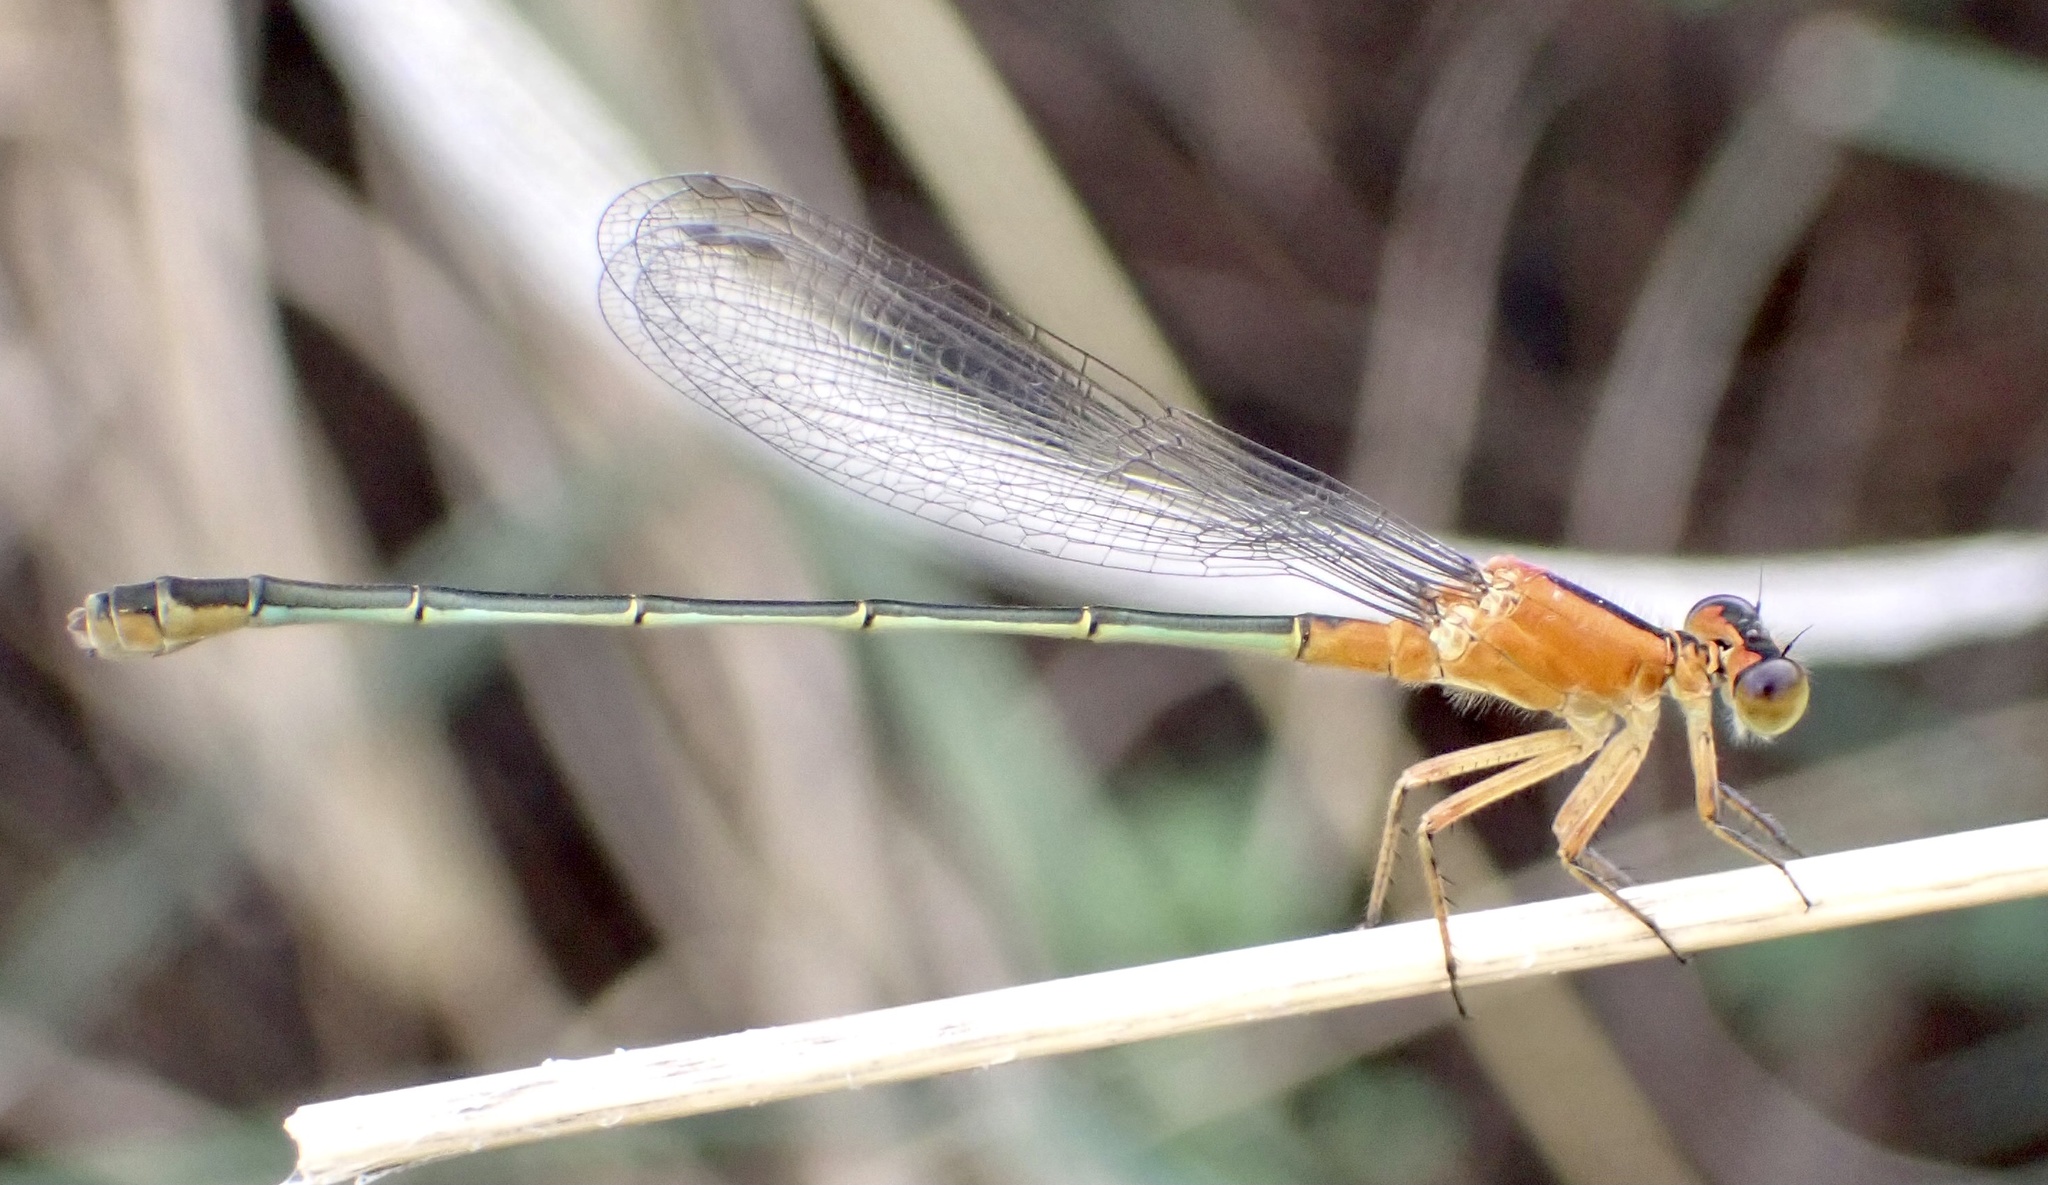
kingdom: Animalia
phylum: Arthropoda
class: Insecta
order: Odonata
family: Coenagrionidae
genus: Ischnura
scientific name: Ischnura ramburii
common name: Rambur's forktail
